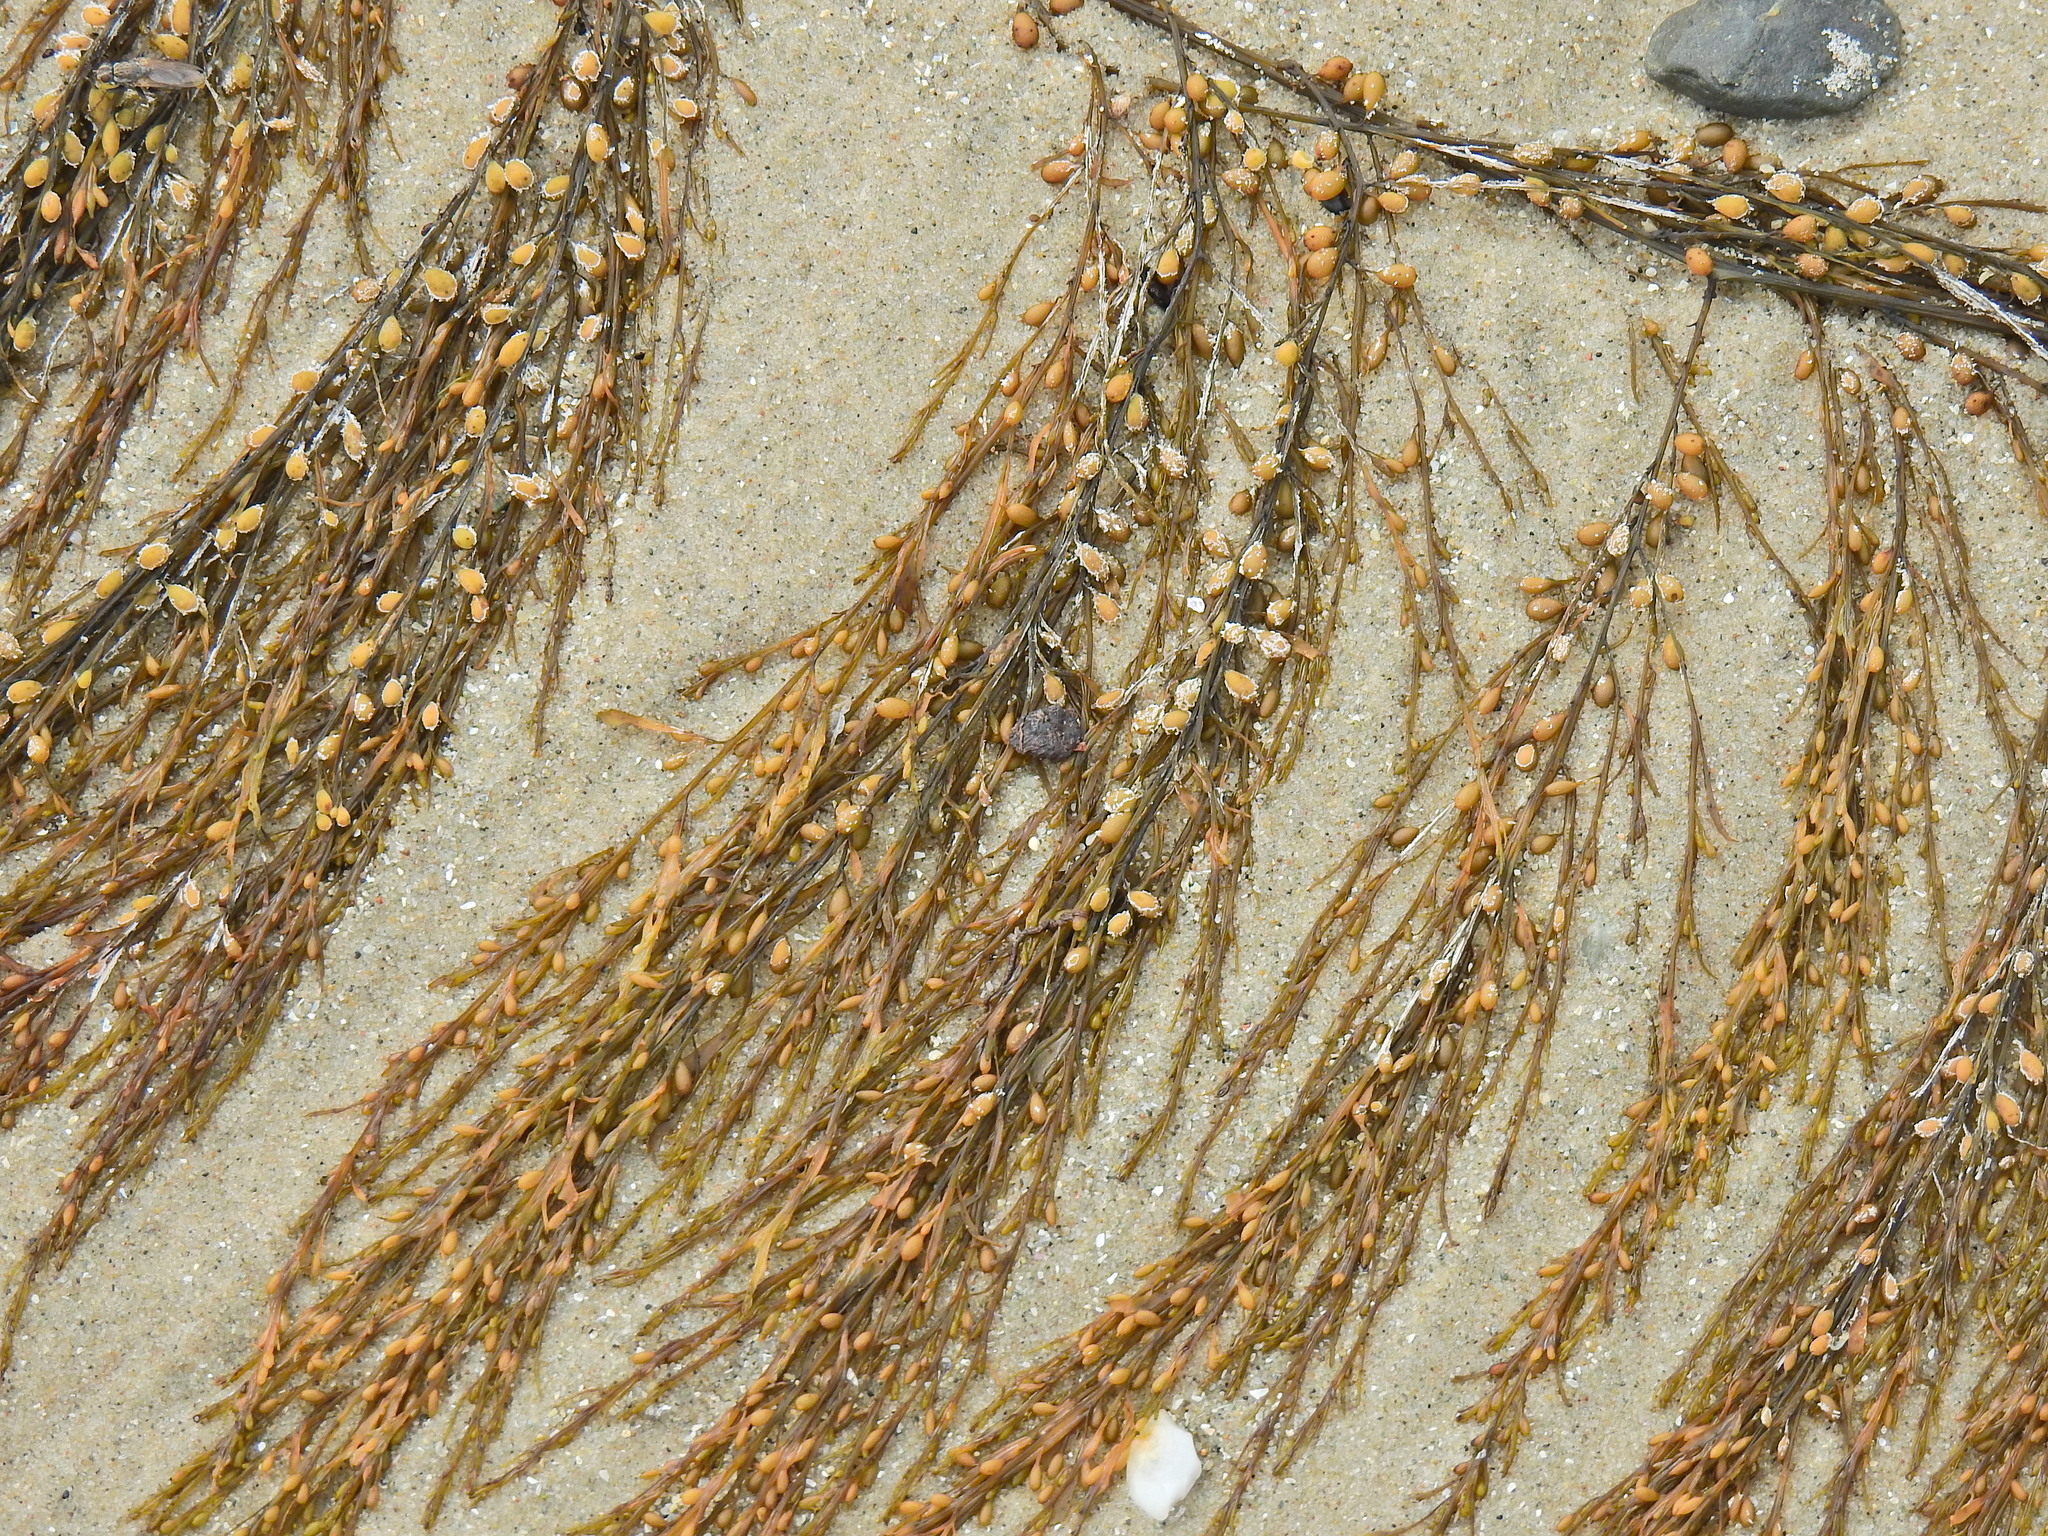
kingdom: Chromista
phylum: Ochrophyta
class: Phaeophyceae
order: Fucales
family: Sargassaceae
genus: Sargassum
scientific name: Sargassum muticum
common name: Japweed
